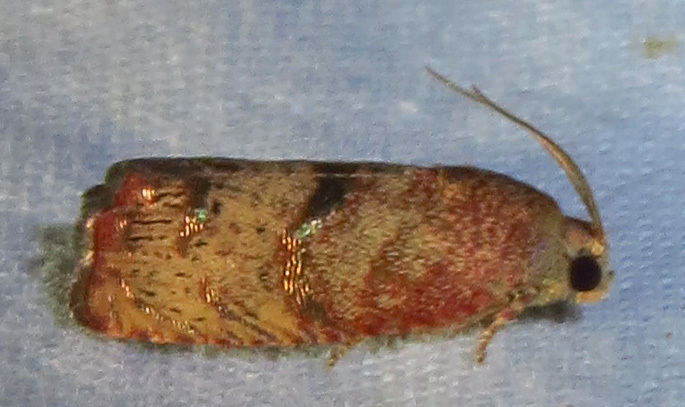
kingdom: Animalia
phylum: Arthropoda
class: Insecta
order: Lepidoptera
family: Tortricidae
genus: Cydia
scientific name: Cydia latiferreana
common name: Filbertworm moth
